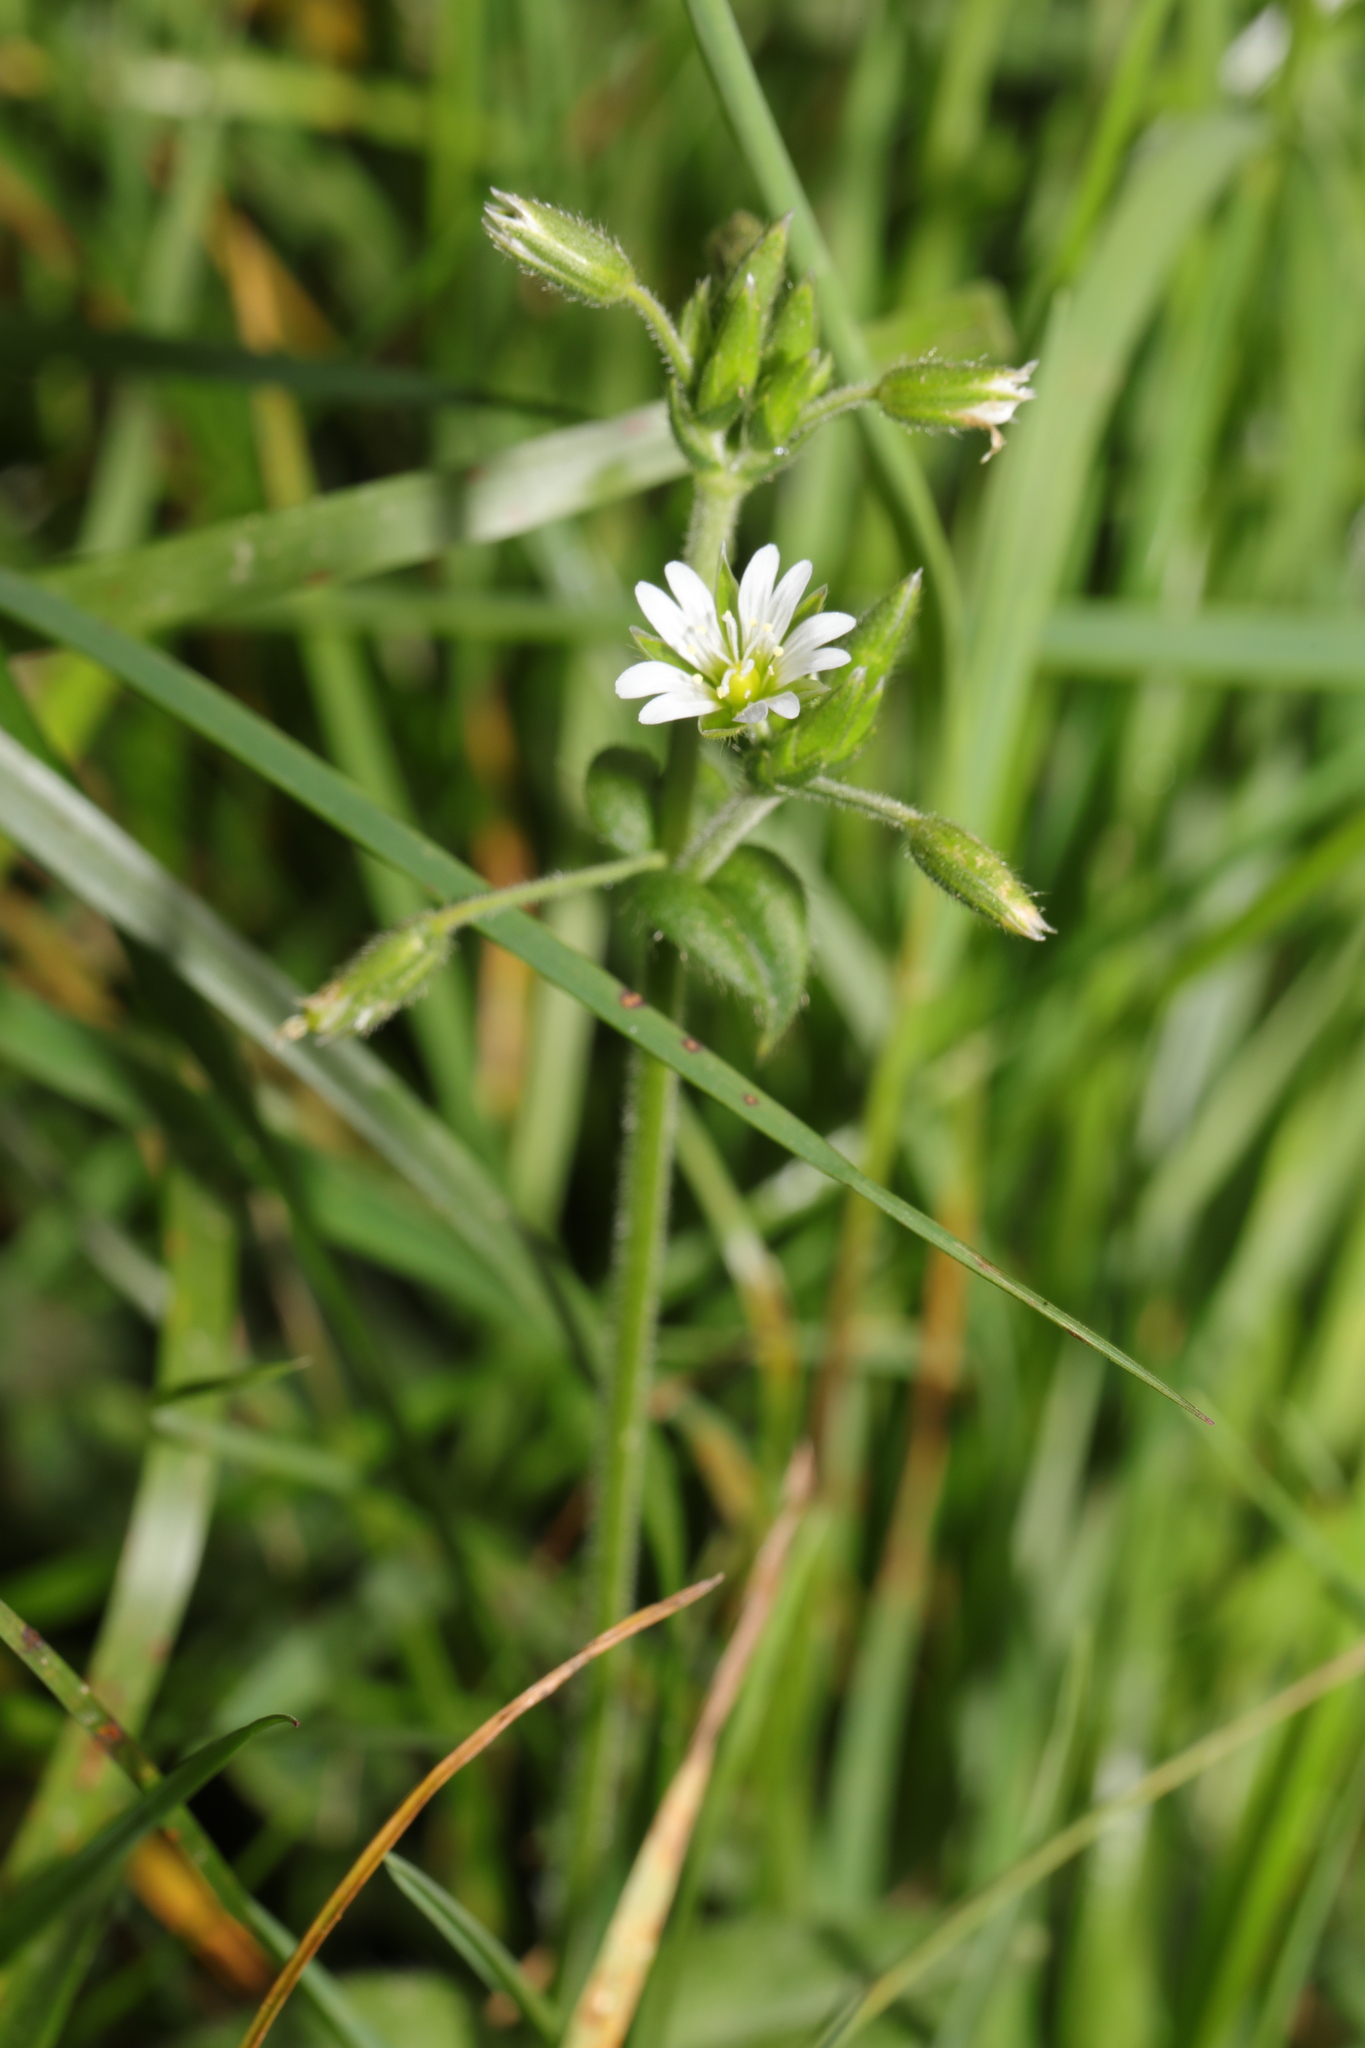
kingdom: Plantae
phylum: Tracheophyta
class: Magnoliopsida
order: Caryophyllales
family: Caryophyllaceae
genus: Cerastium
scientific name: Cerastium fontanum
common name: Common mouse-ear
